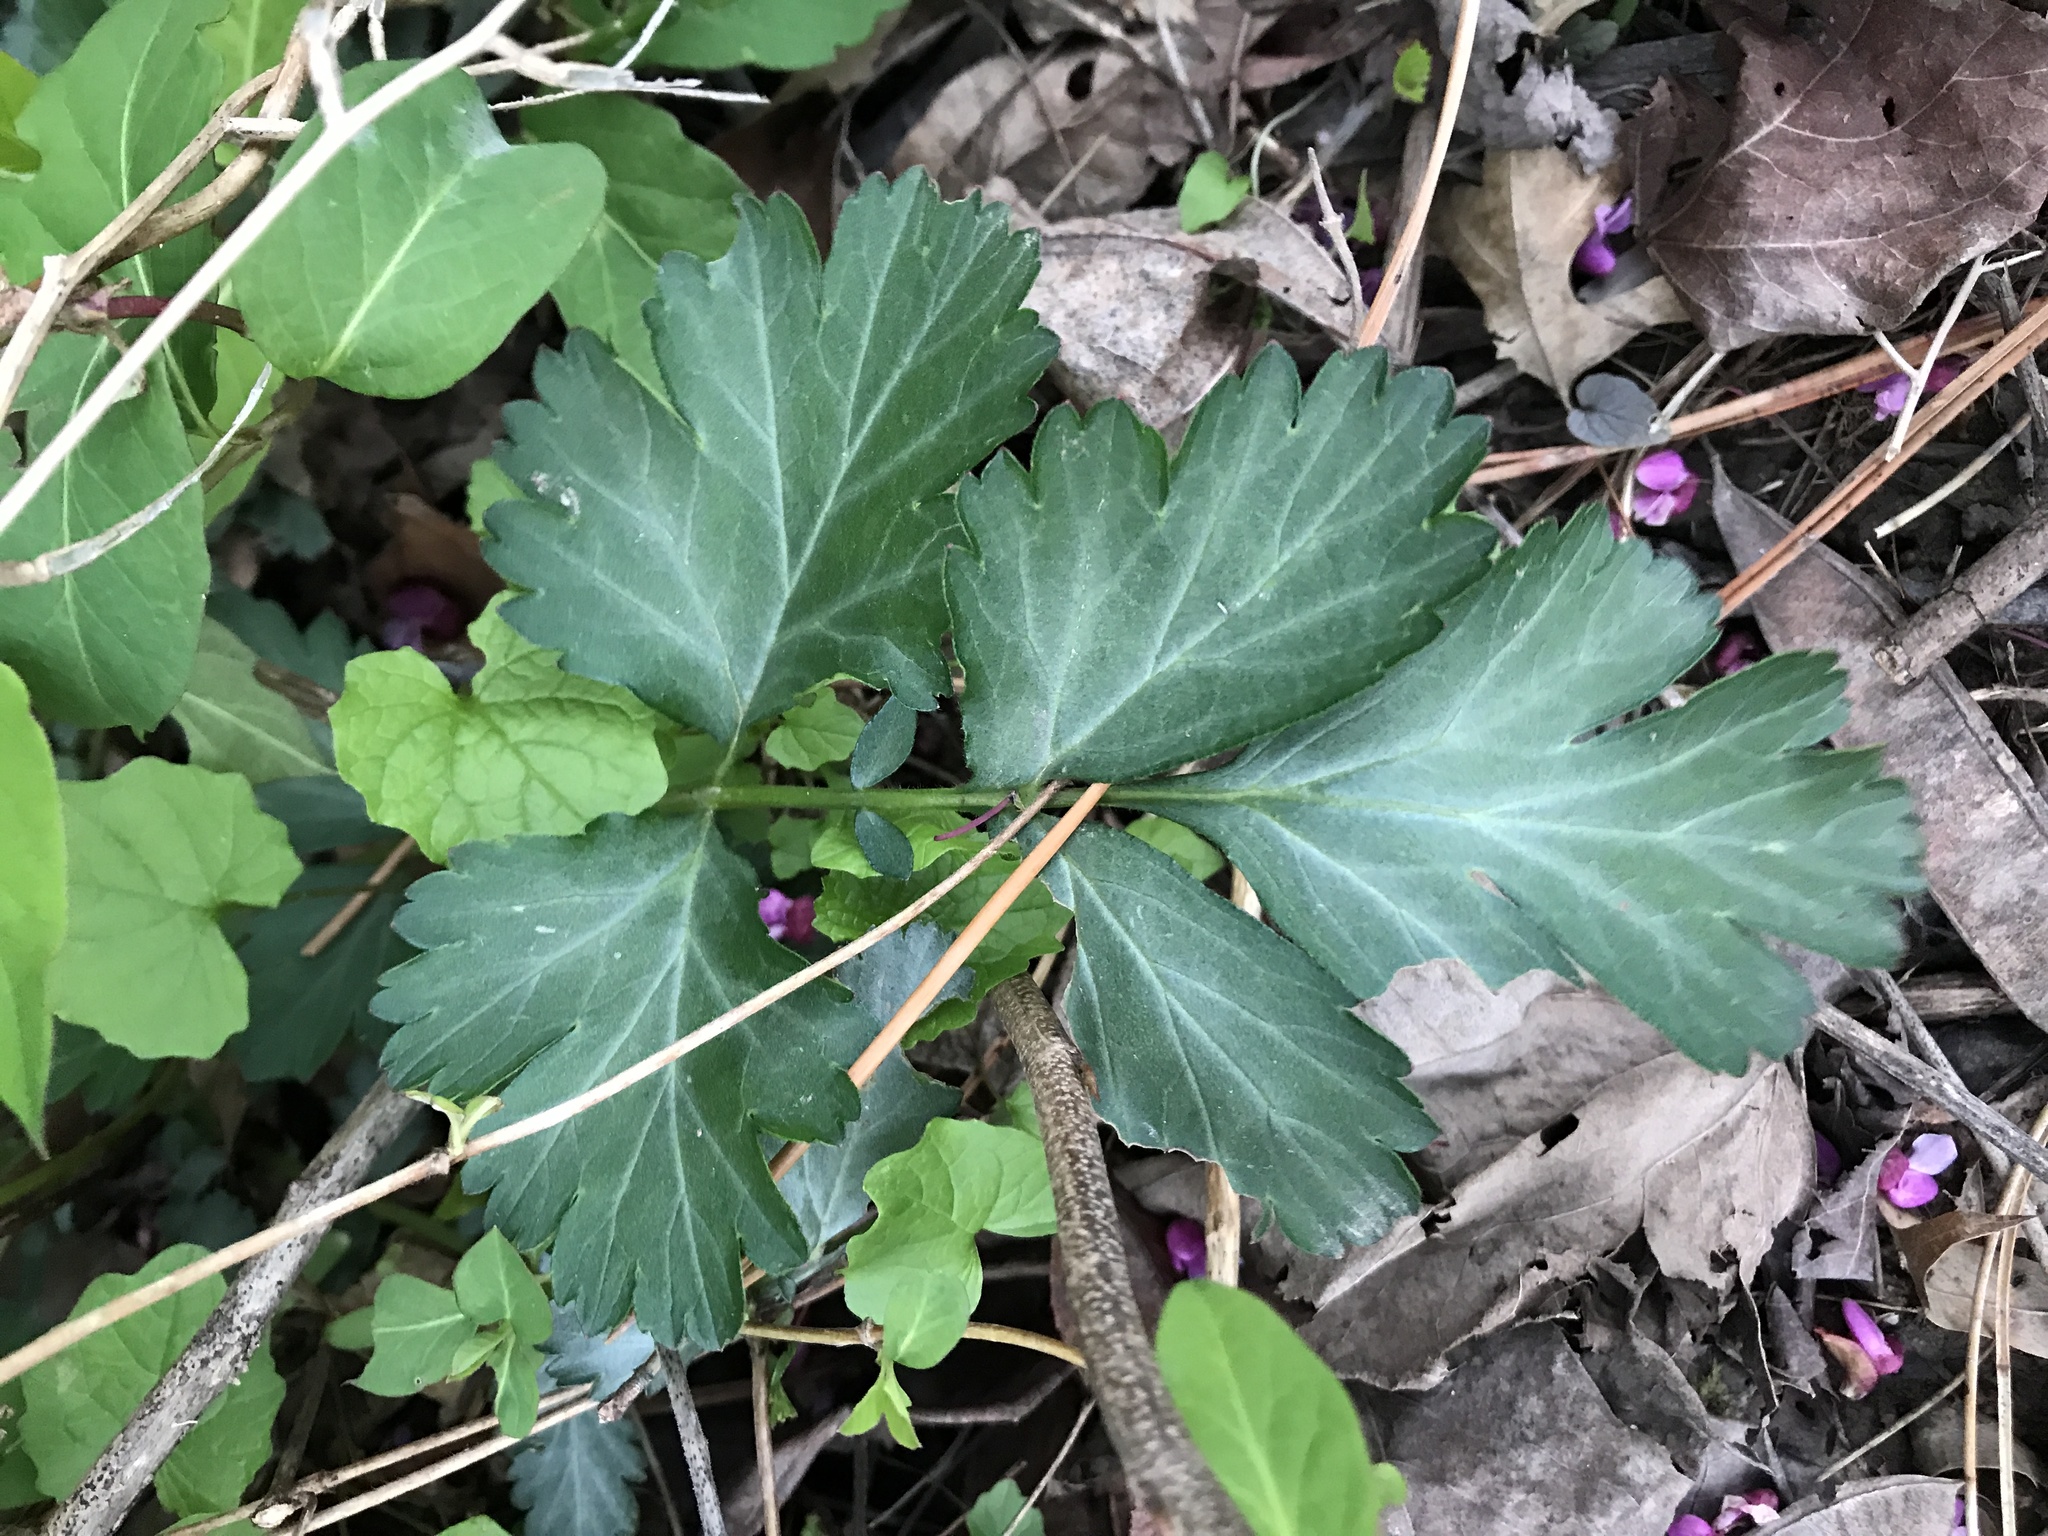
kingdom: Plantae
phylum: Tracheophyta
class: Magnoliopsida
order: Rosales
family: Rosaceae
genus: Geum
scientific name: Geum canadense
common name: White avens
